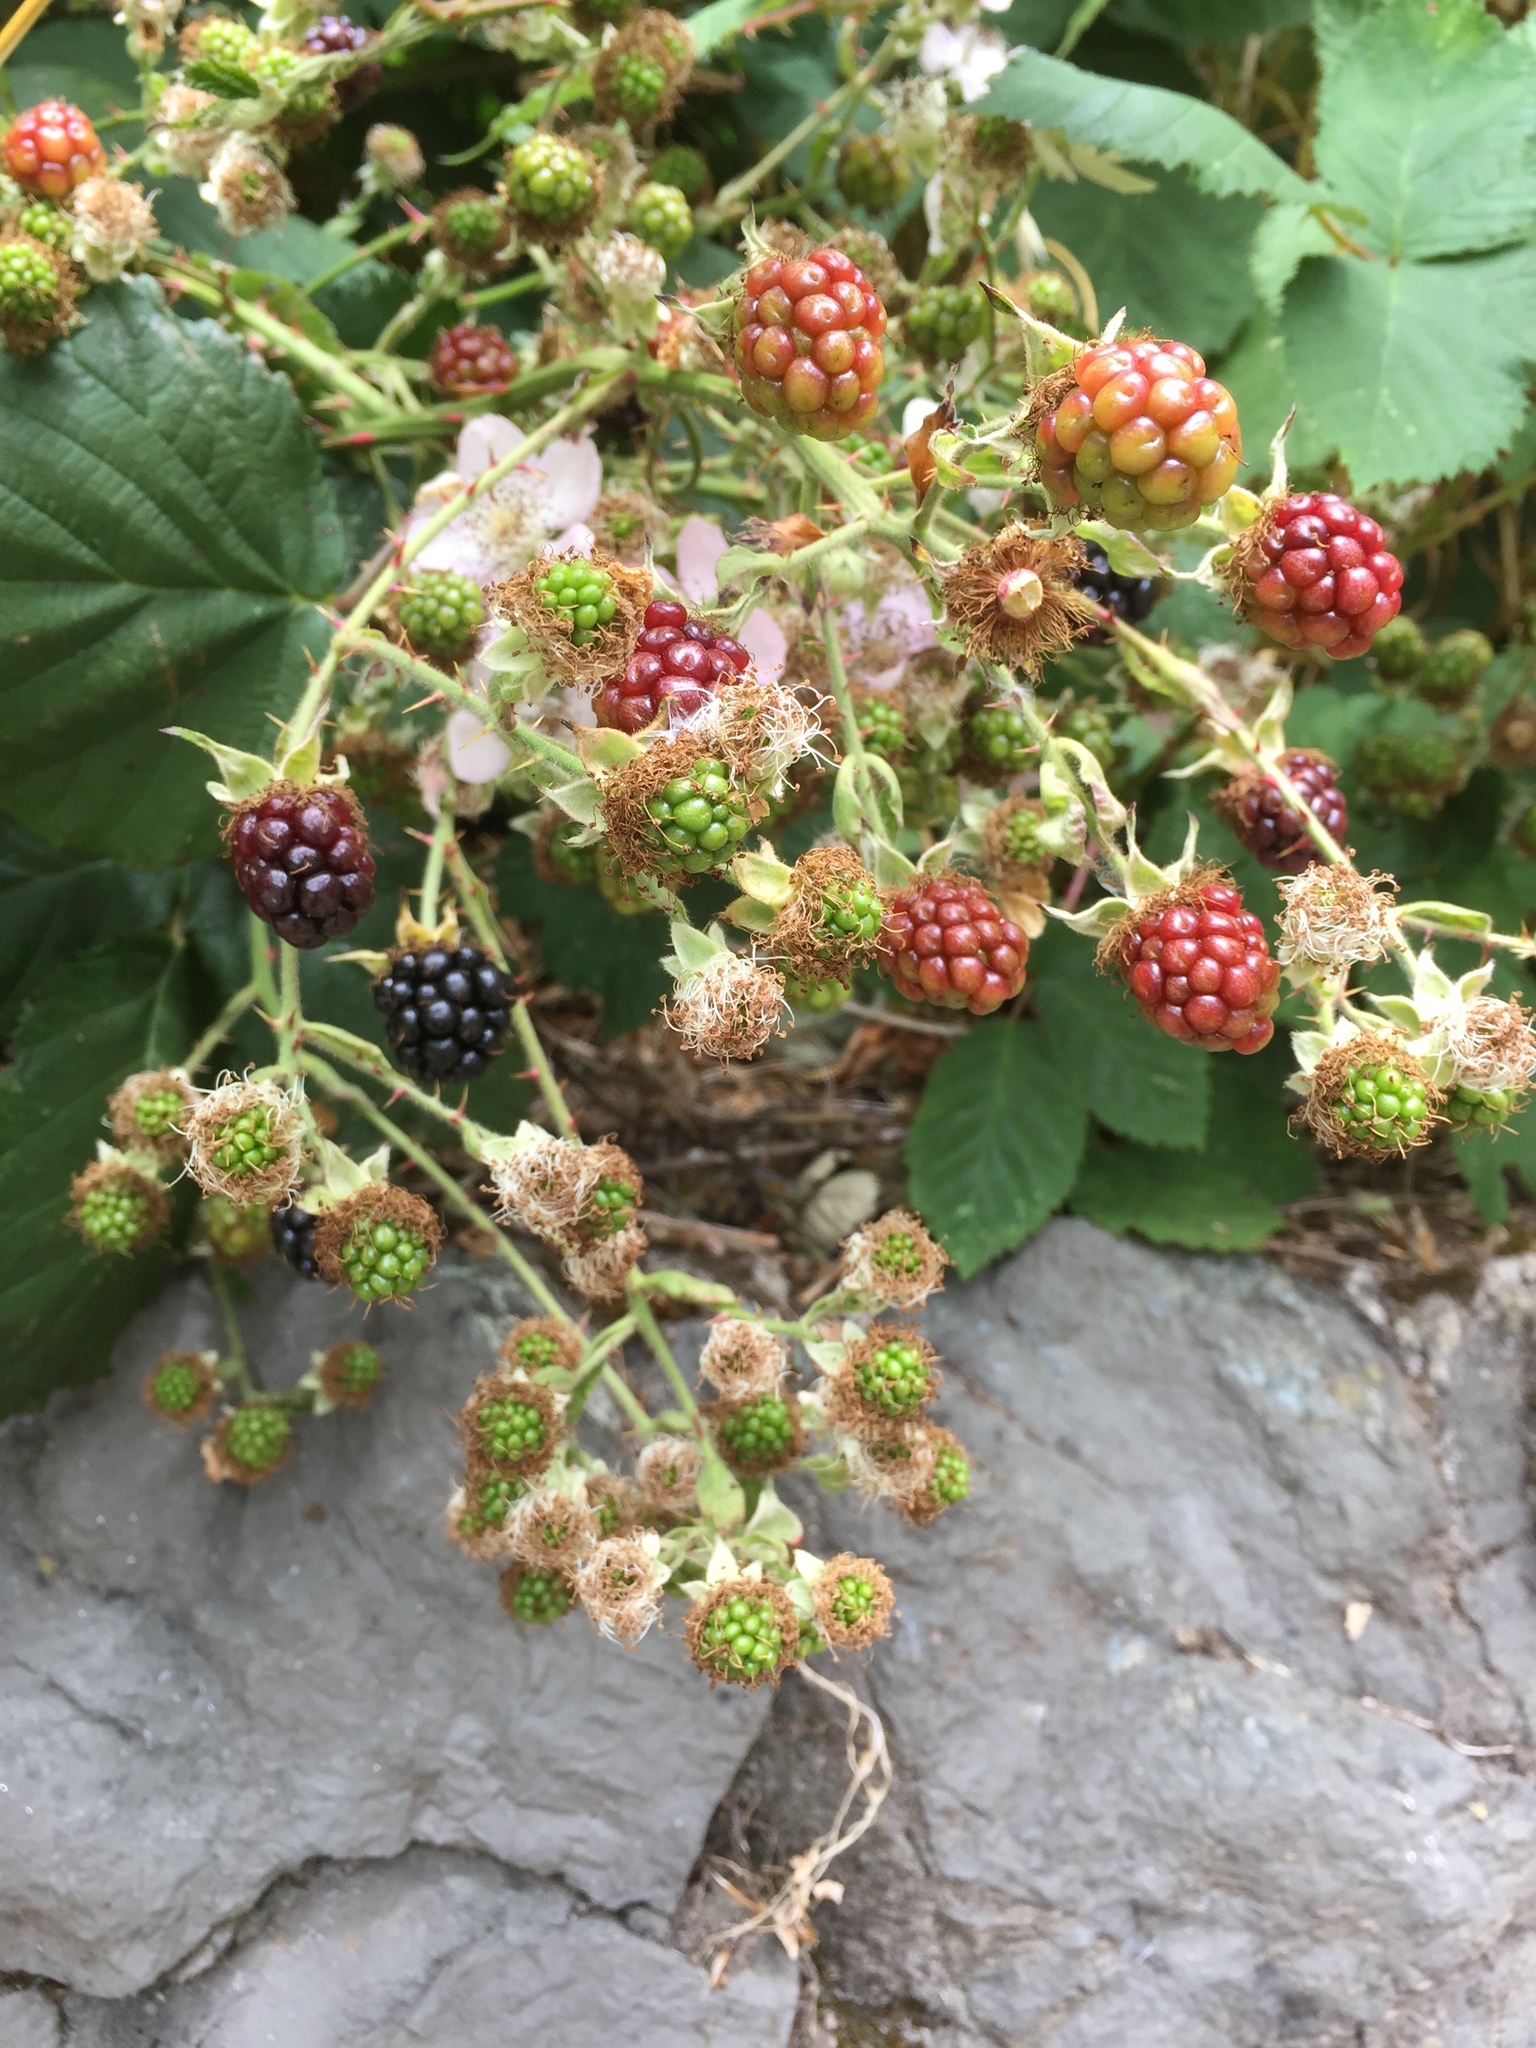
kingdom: Plantae
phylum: Tracheophyta
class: Magnoliopsida
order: Rosales
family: Rosaceae
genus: Rubus
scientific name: Rubus armeniacus
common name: Himalayan blackberry
